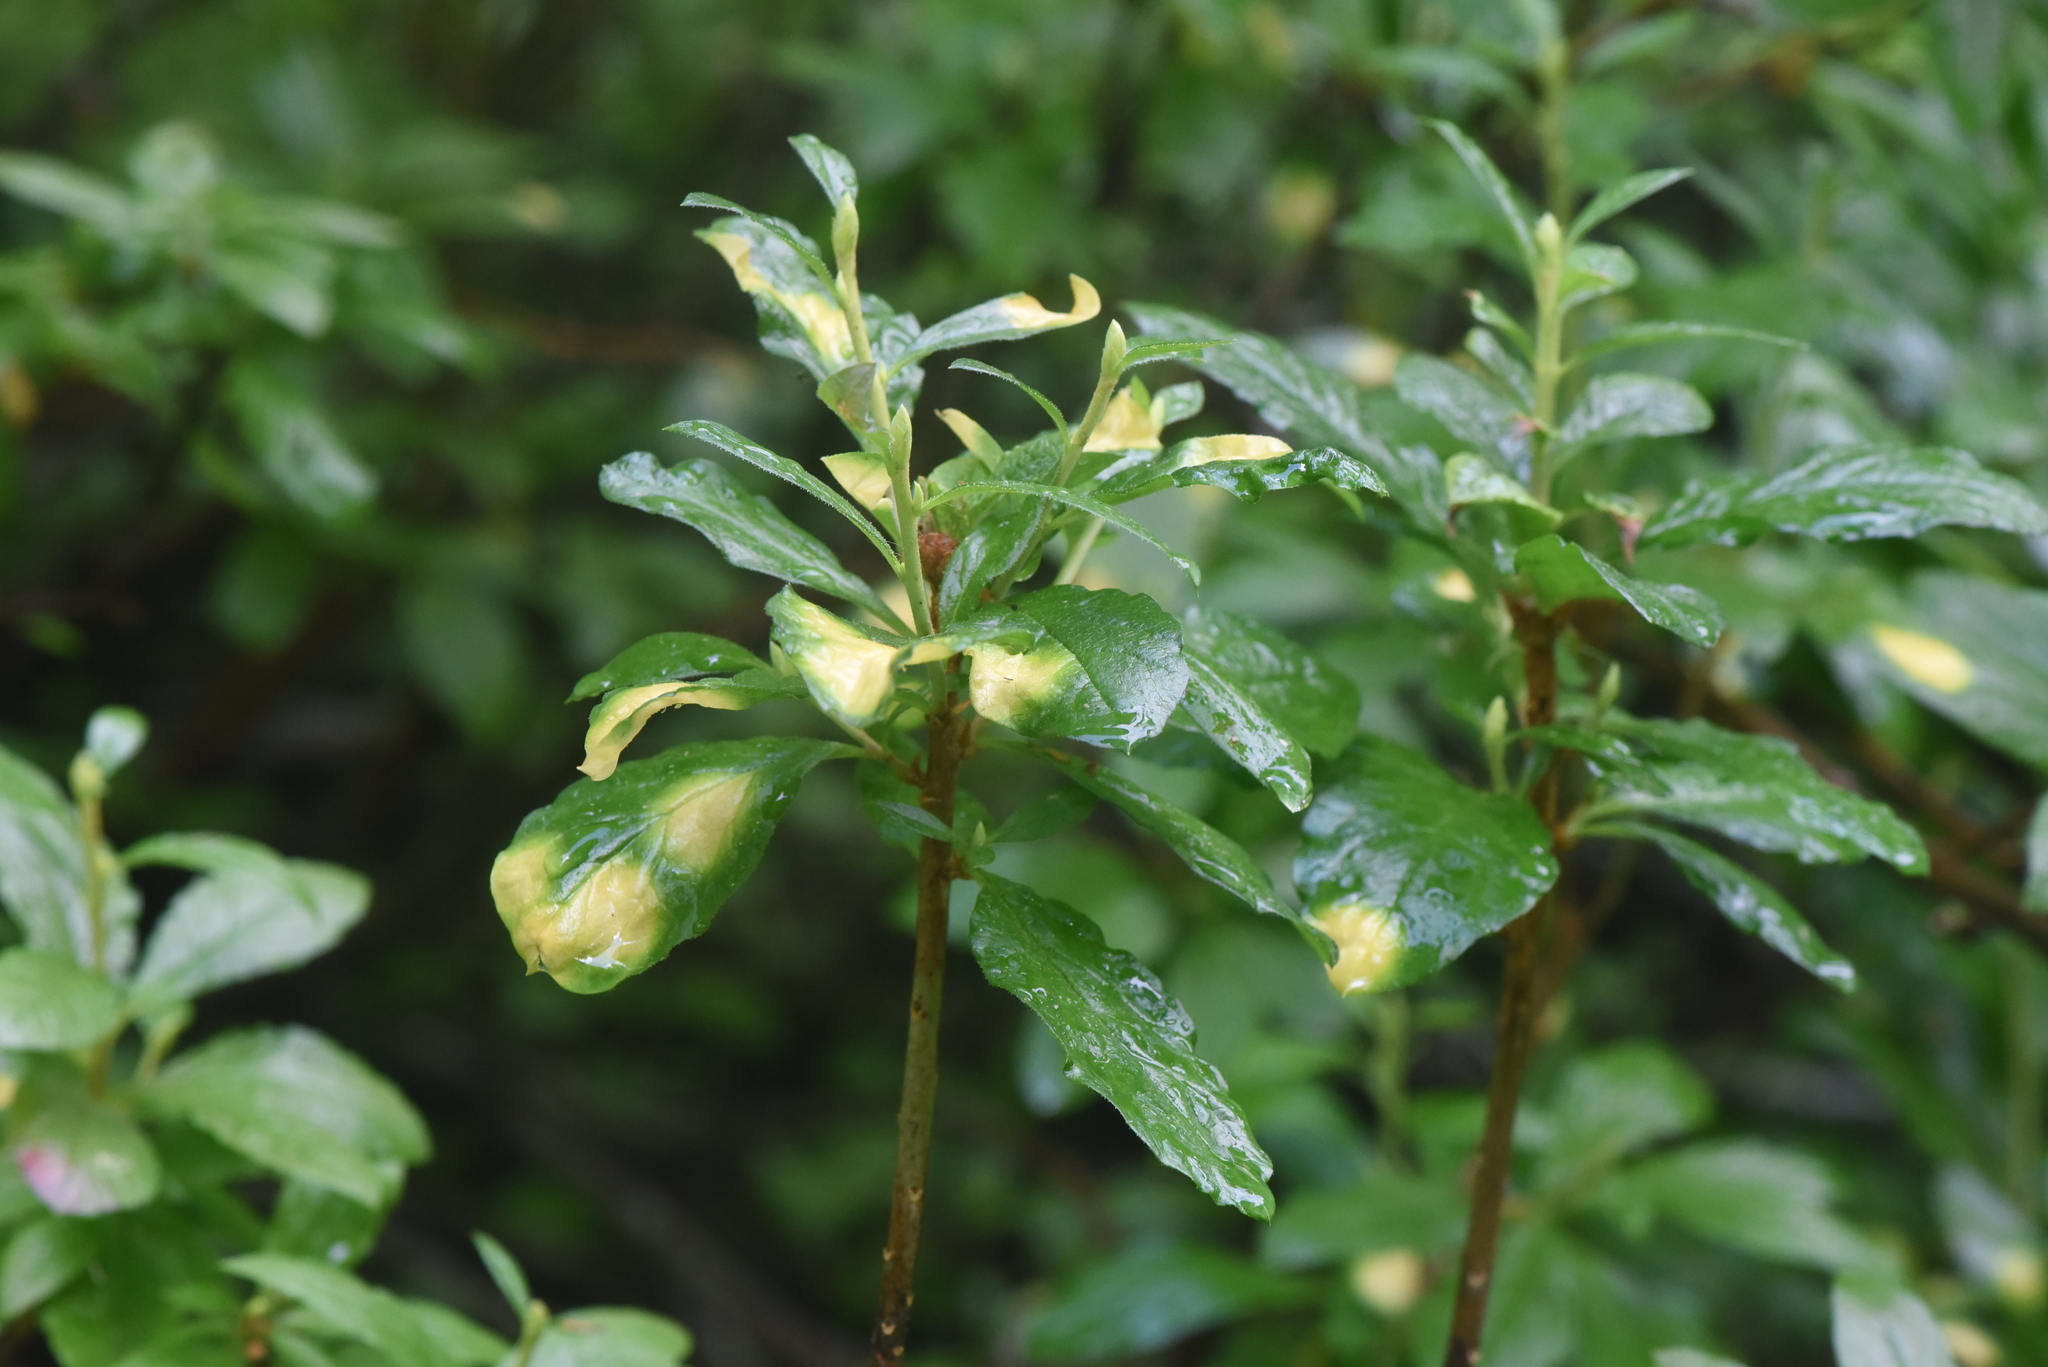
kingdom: Fungi
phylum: Basidiomycota
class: Exobasidiomycetes
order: Exobasidiales
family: Exobasidiaceae
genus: Exobasidium
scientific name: Exobasidium burtii
